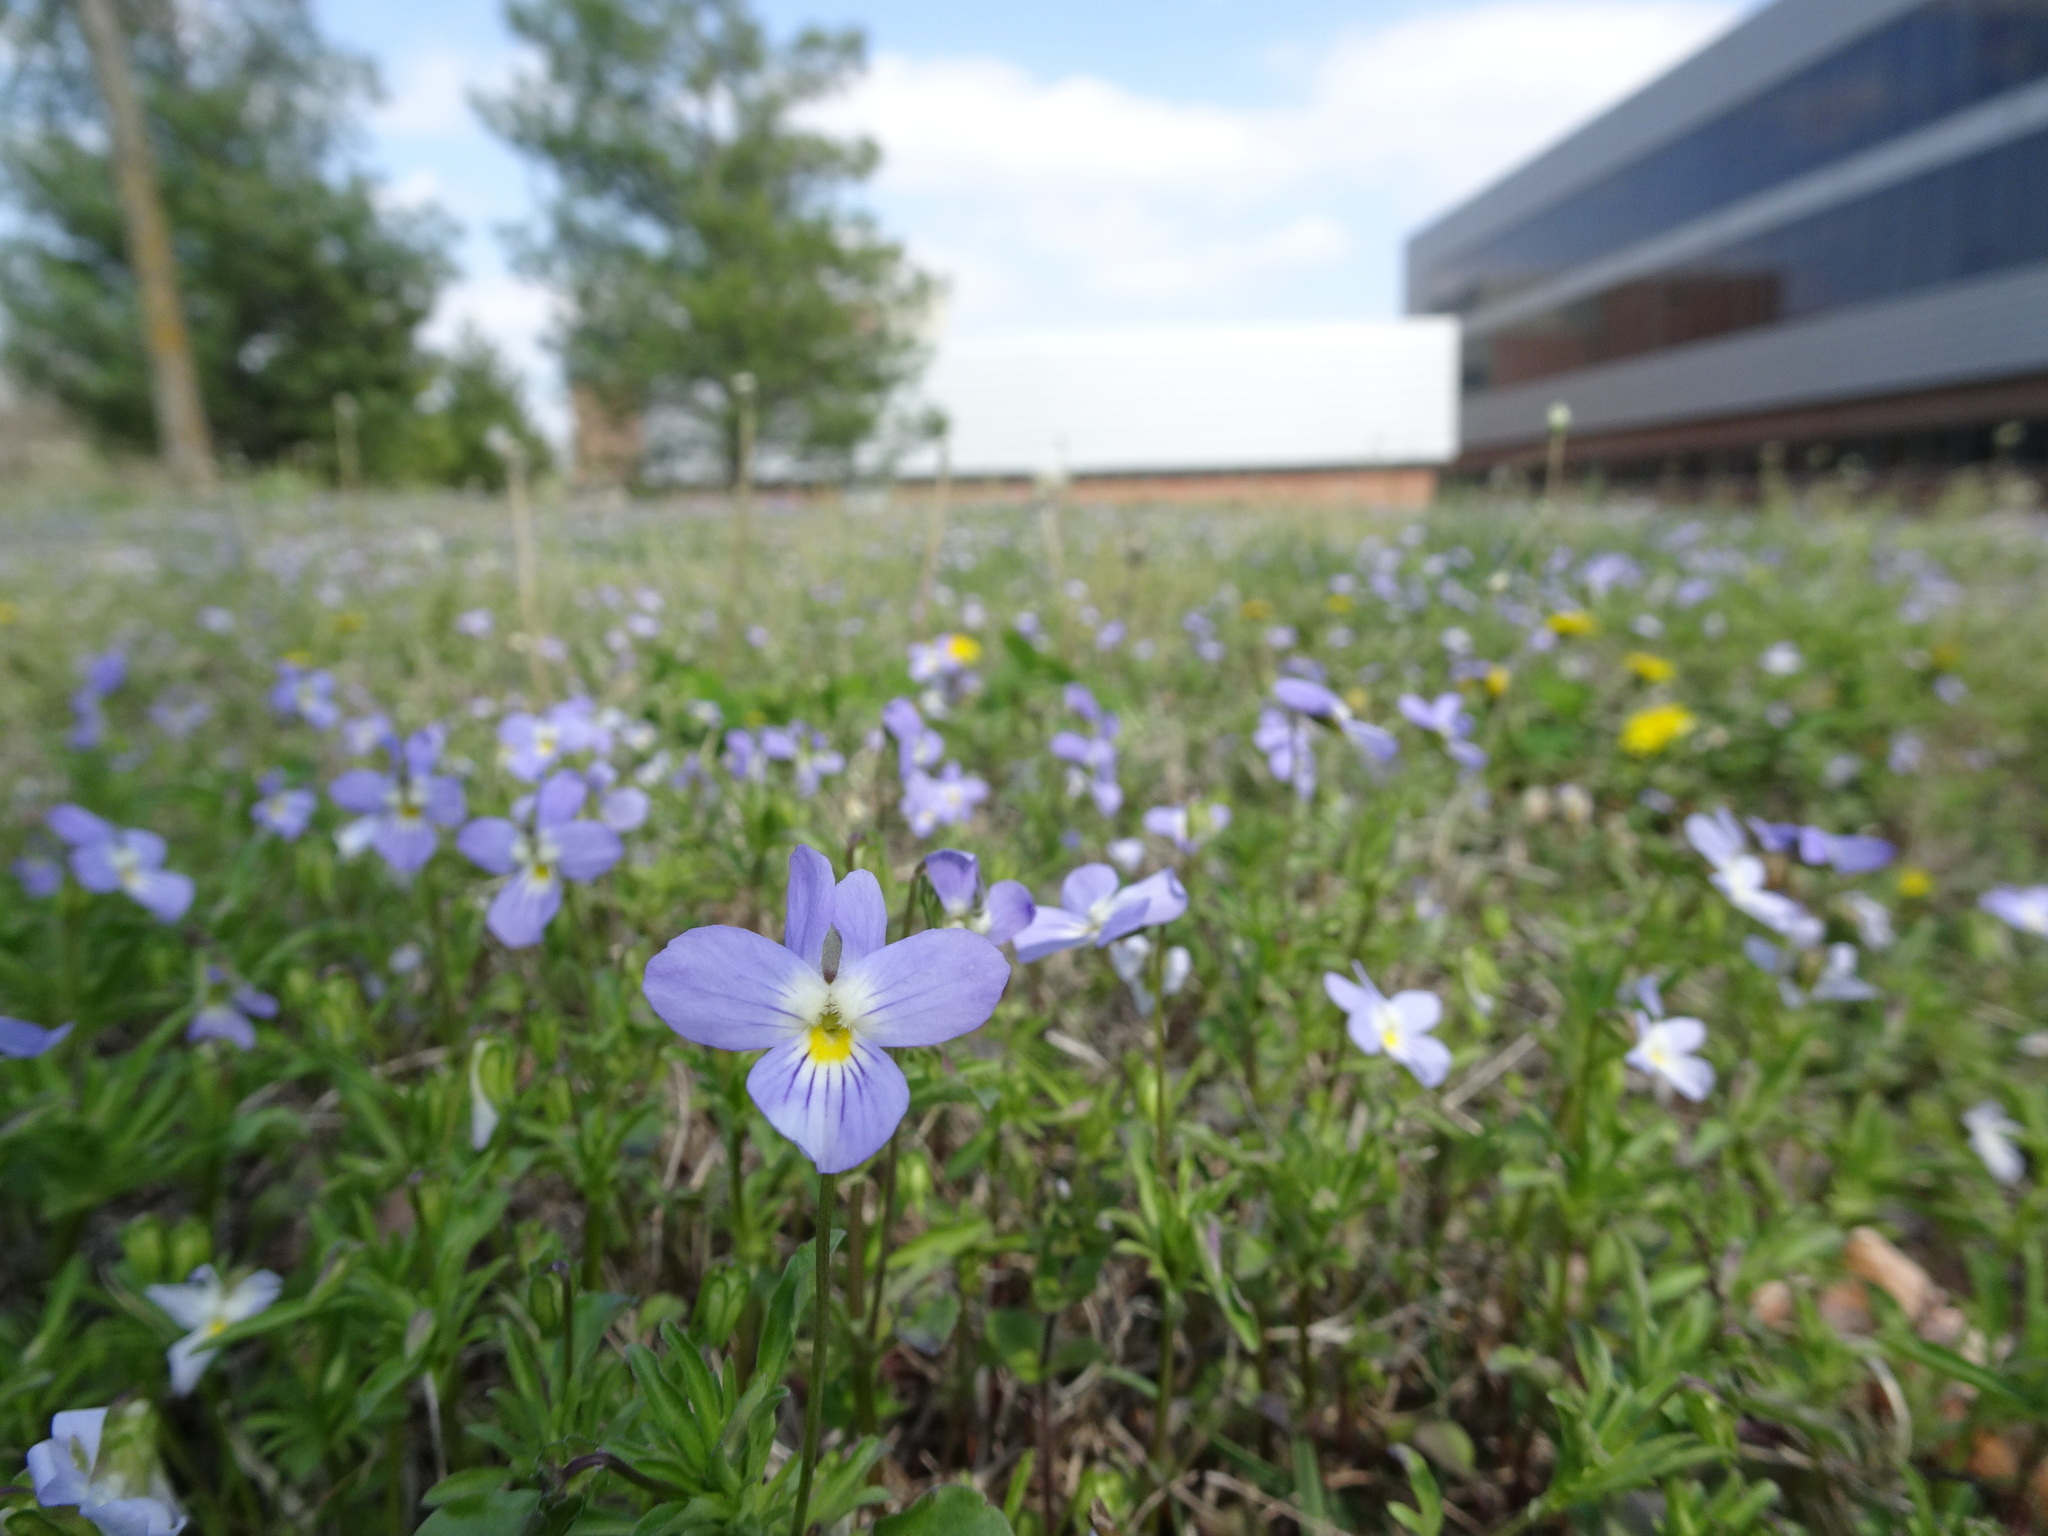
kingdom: Plantae
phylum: Tracheophyta
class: Magnoliopsida
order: Malpighiales
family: Violaceae
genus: Viola
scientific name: Viola rafinesquei
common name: American field pansy
